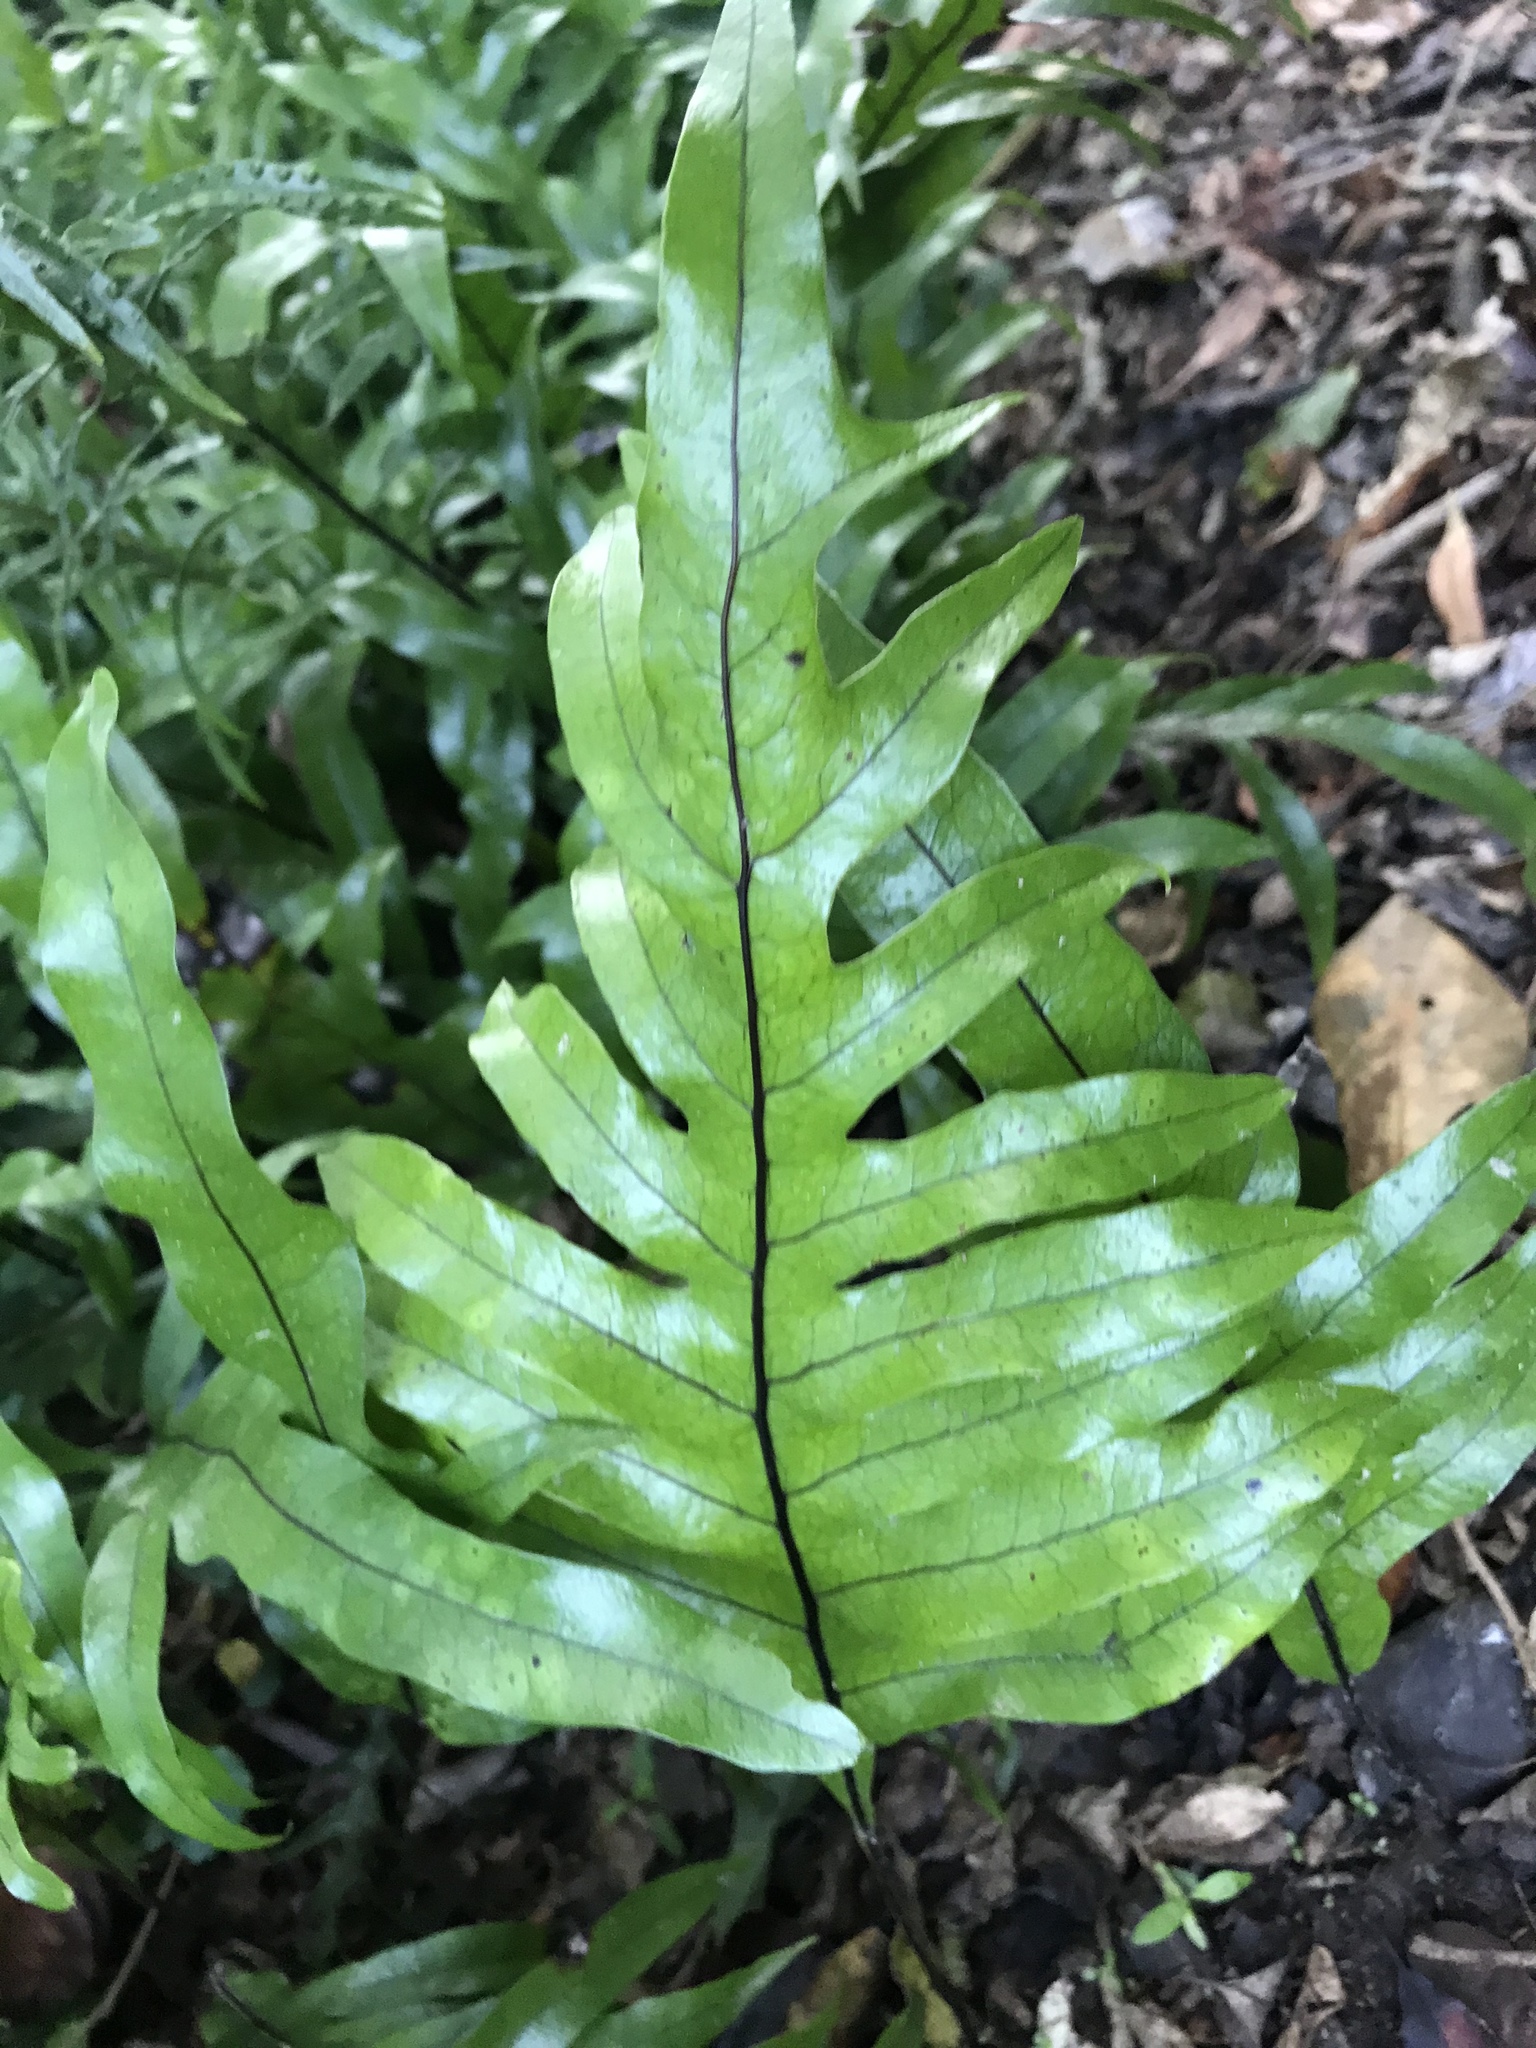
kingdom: Plantae
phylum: Tracheophyta
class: Polypodiopsida
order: Polypodiales
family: Polypodiaceae
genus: Lecanopteris
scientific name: Lecanopteris pustulata
